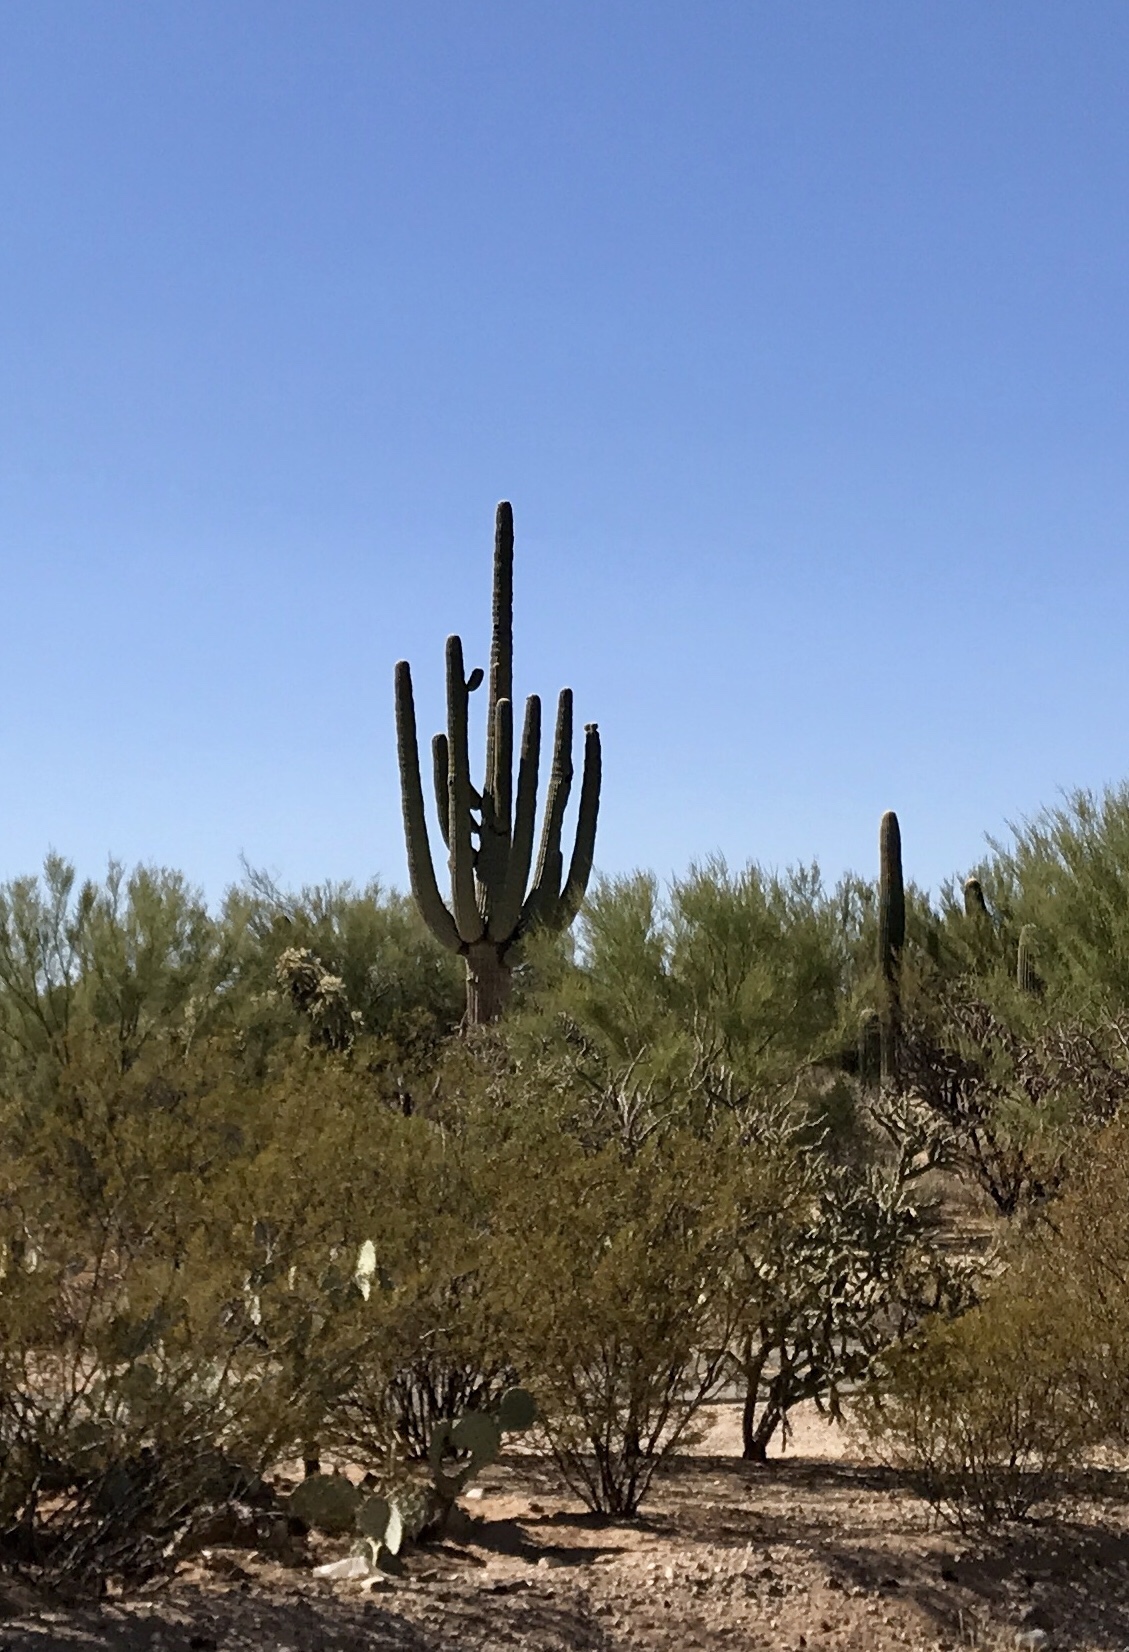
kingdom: Plantae
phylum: Tracheophyta
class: Magnoliopsida
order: Caryophyllales
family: Cactaceae
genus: Carnegiea
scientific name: Carnegiea gigantea
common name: Saguaro
